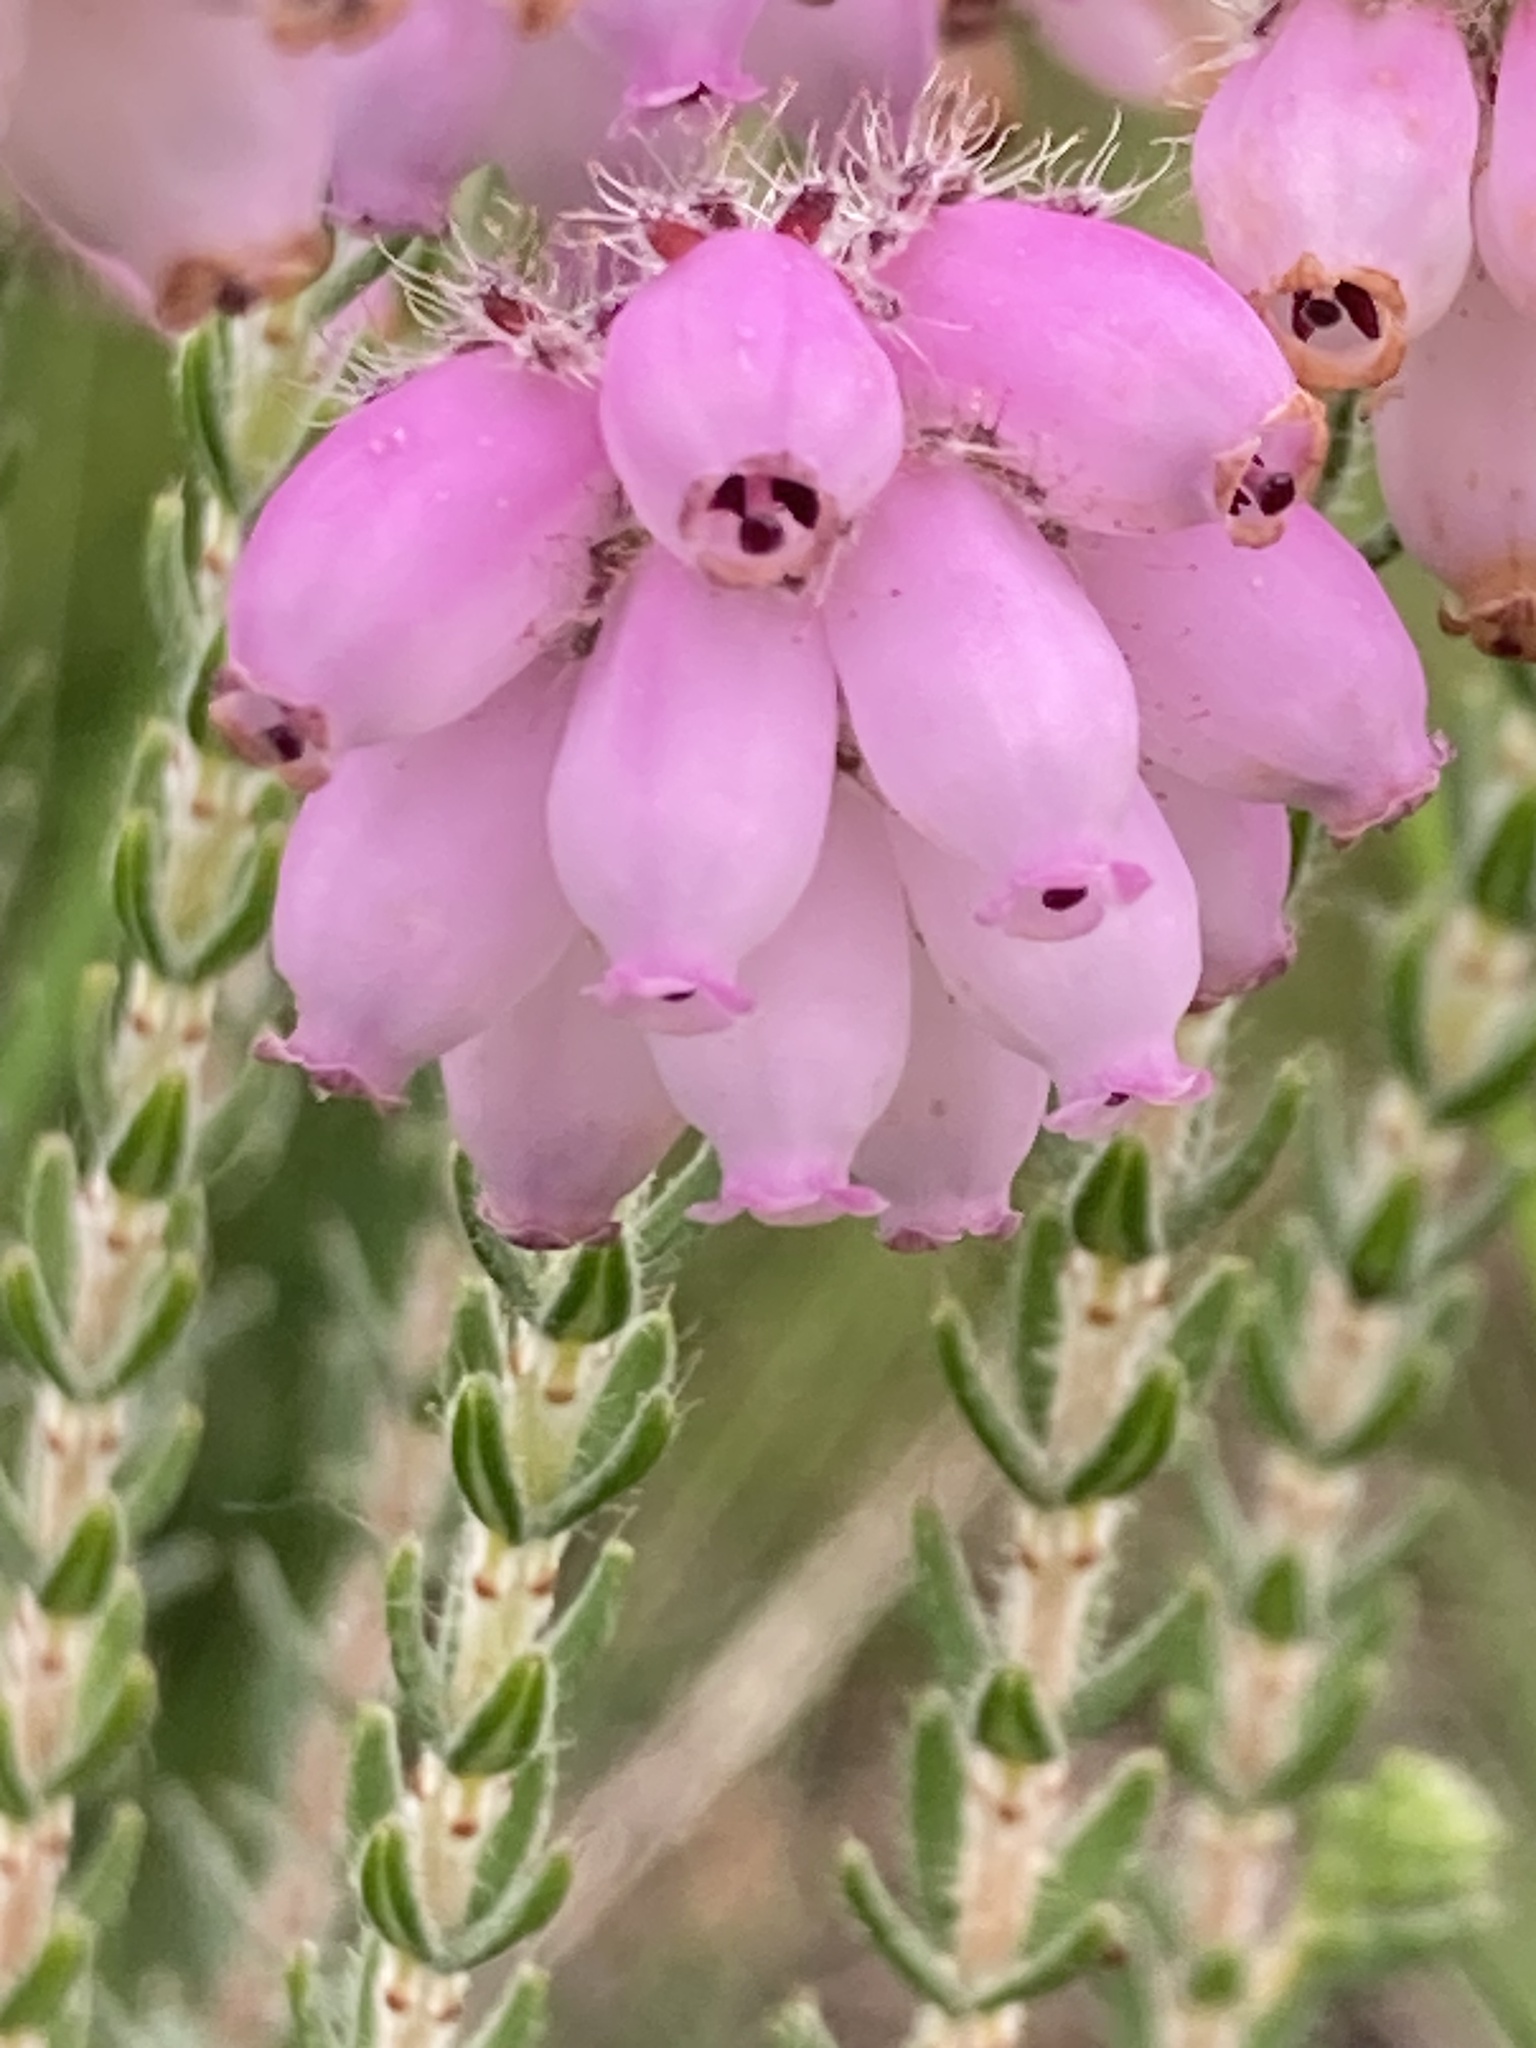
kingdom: Plantae
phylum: Tracheophyta
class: Magnoliopsida
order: Ericales
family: Ericaceae
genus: Erica
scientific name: Erica tetralix
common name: Cross-leaved heath
